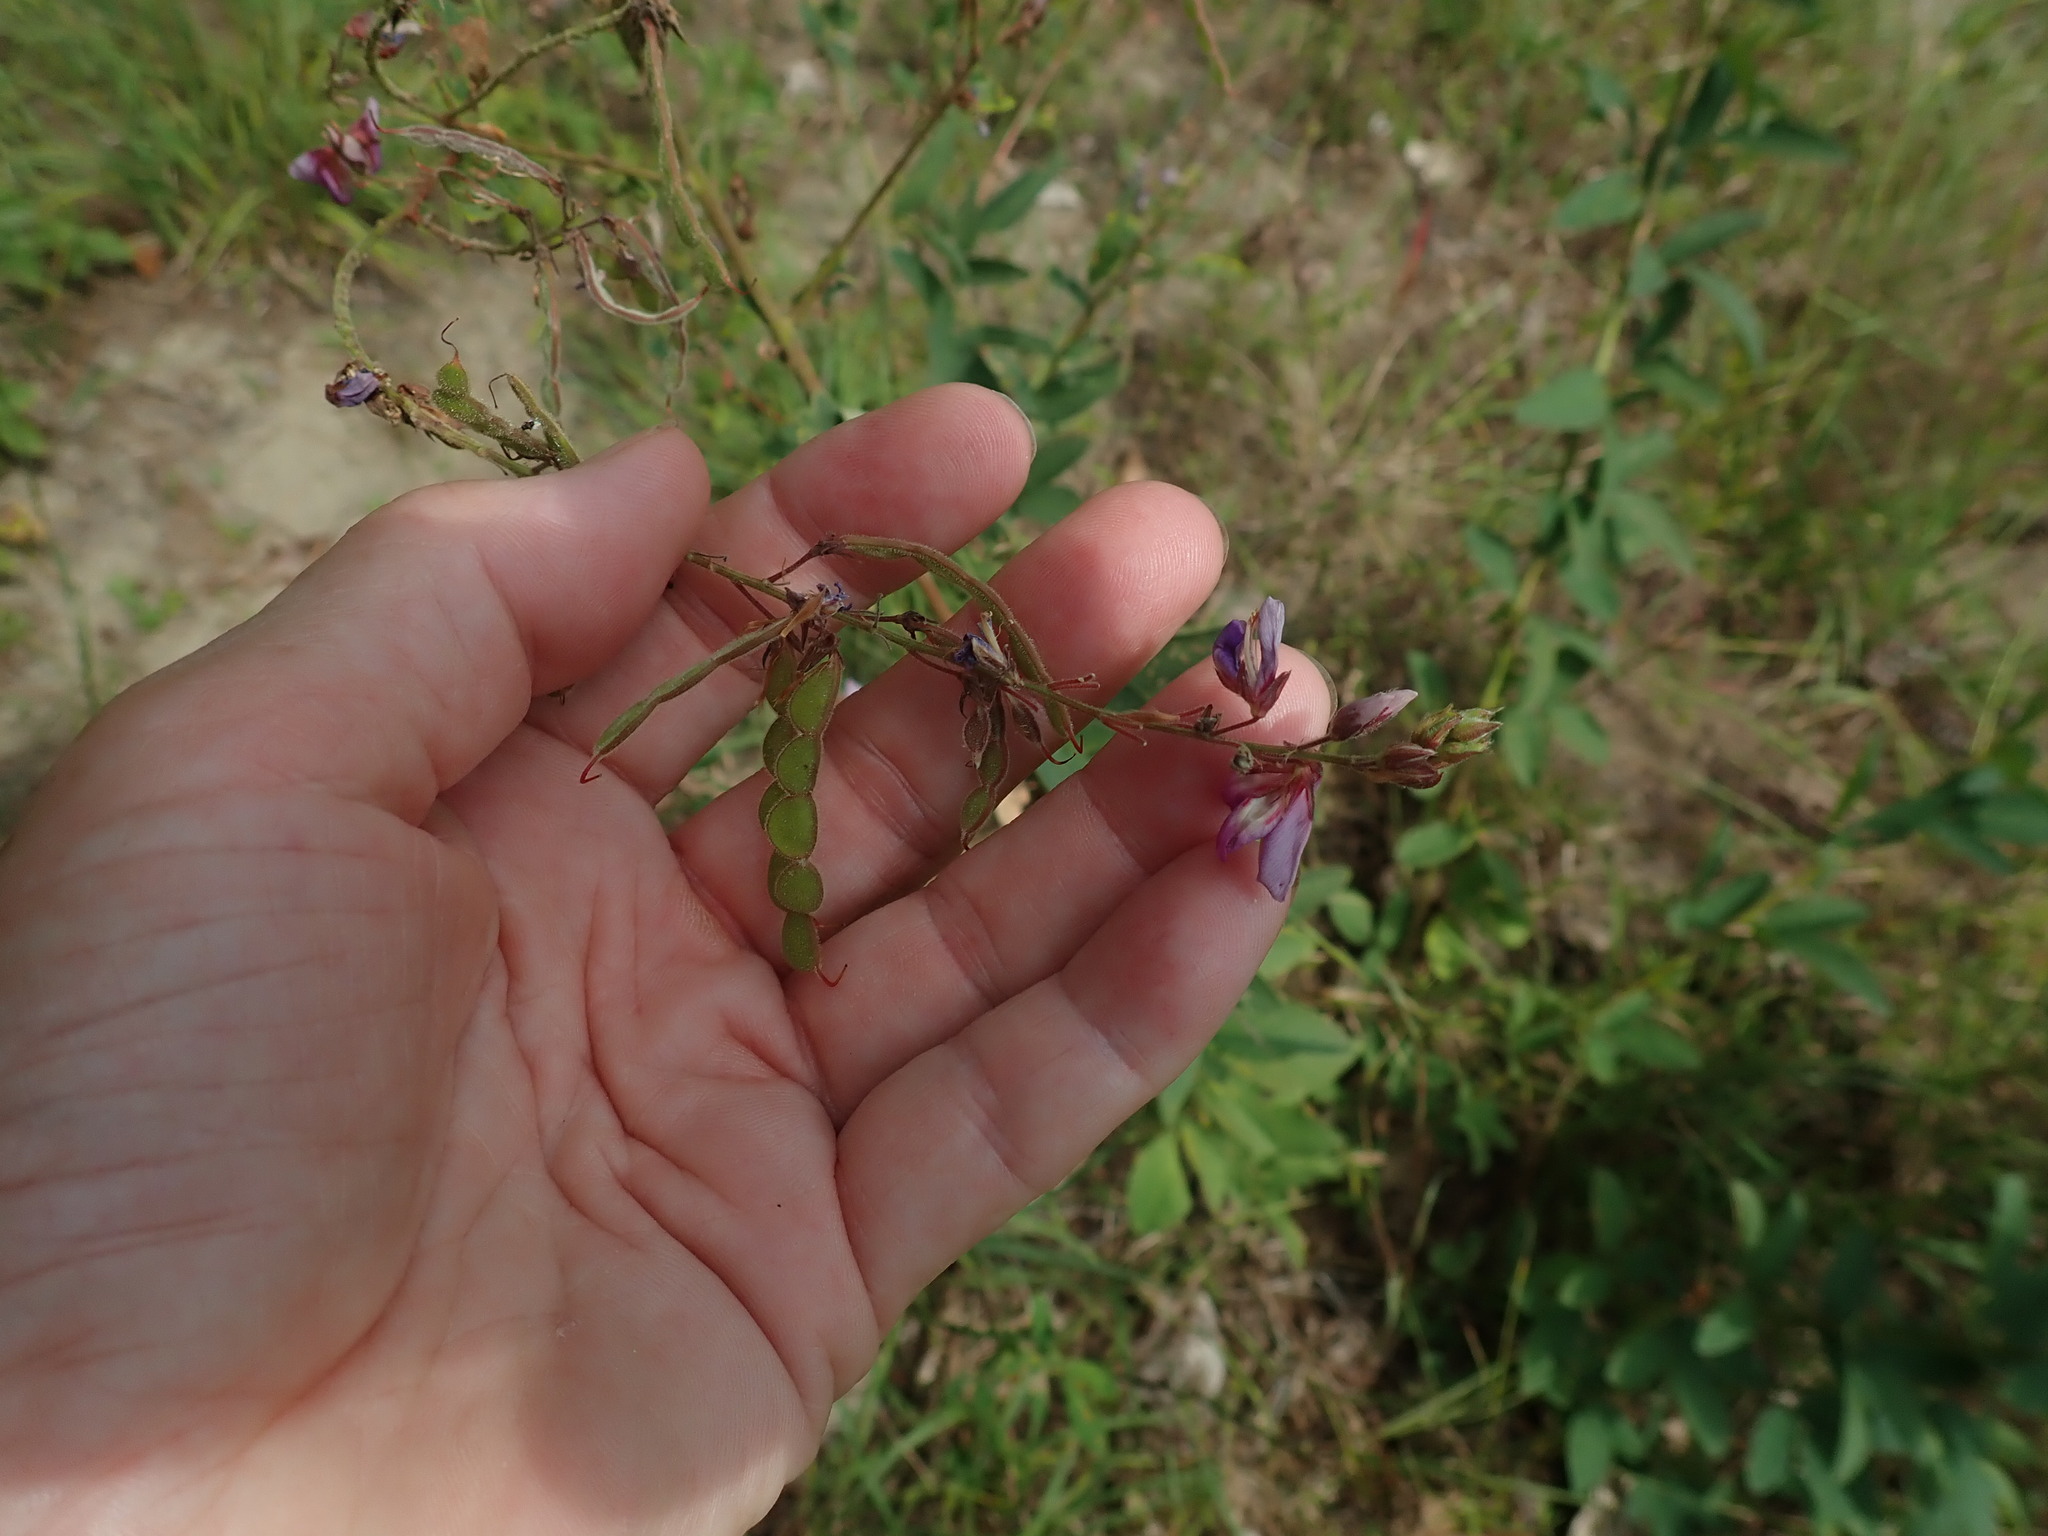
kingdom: Plantae
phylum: Tracheophyta
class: Magnoliopsida
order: Fabales
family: Fabaceae
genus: Desmodium
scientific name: Desmodium canadense
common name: Canada tick-trefoil
